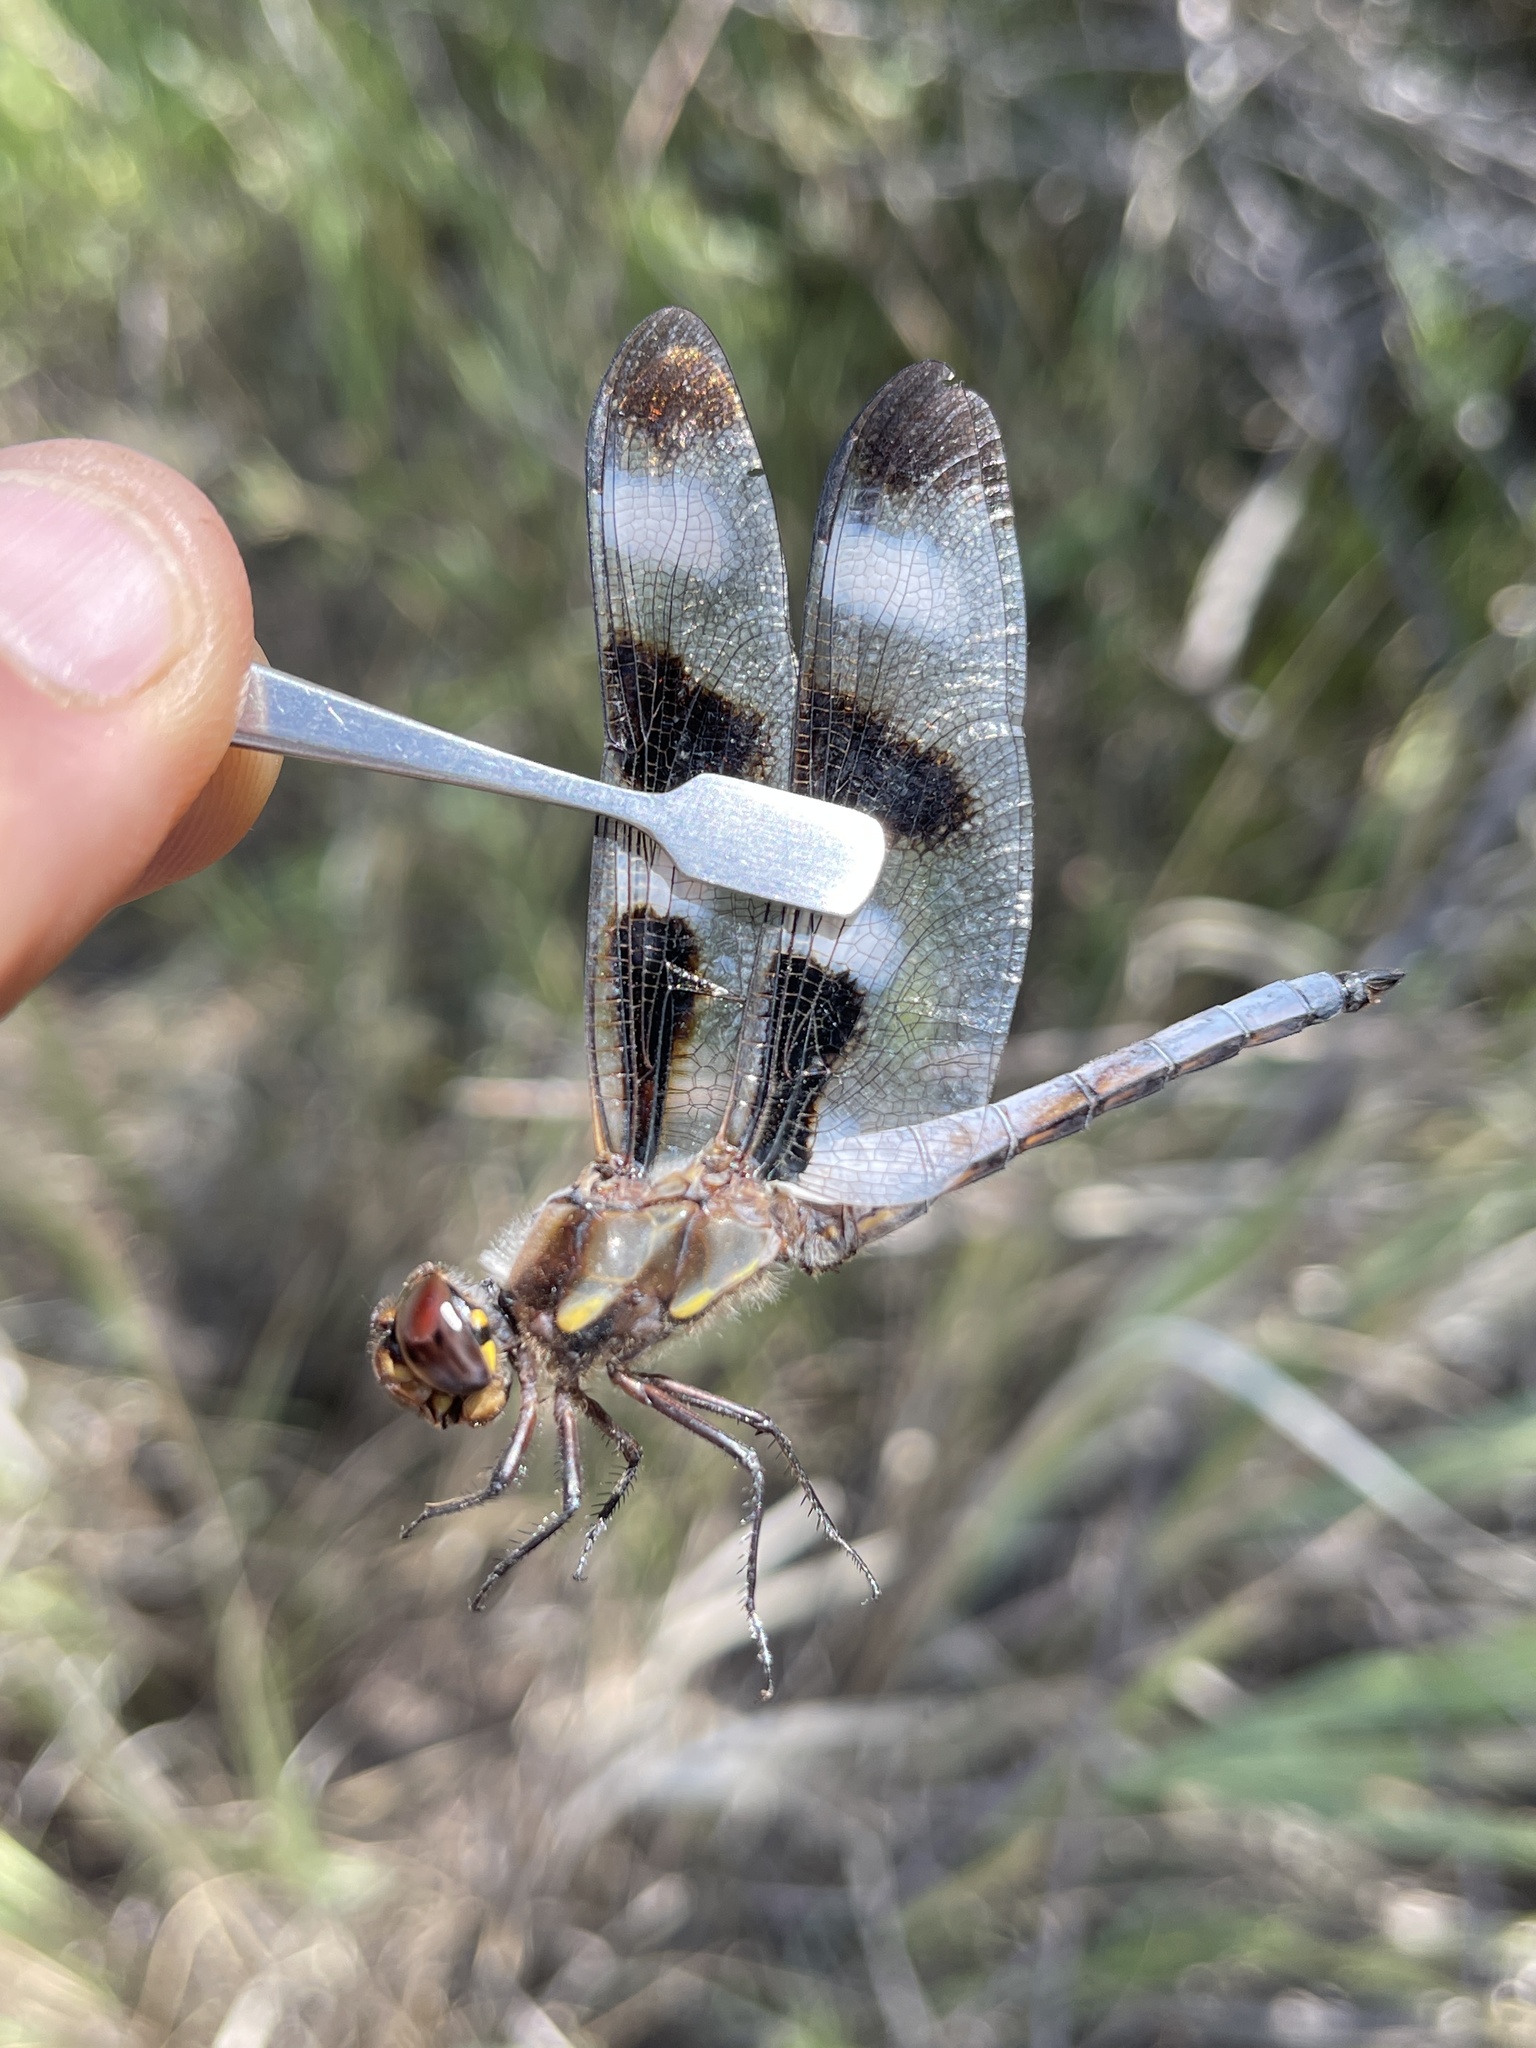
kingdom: Animalia
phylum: Arthropoda
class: Insecta
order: Odonata
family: Libellulidae
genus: Libellula
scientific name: Libellula pulchella
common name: Twelve-spotted skimmer
